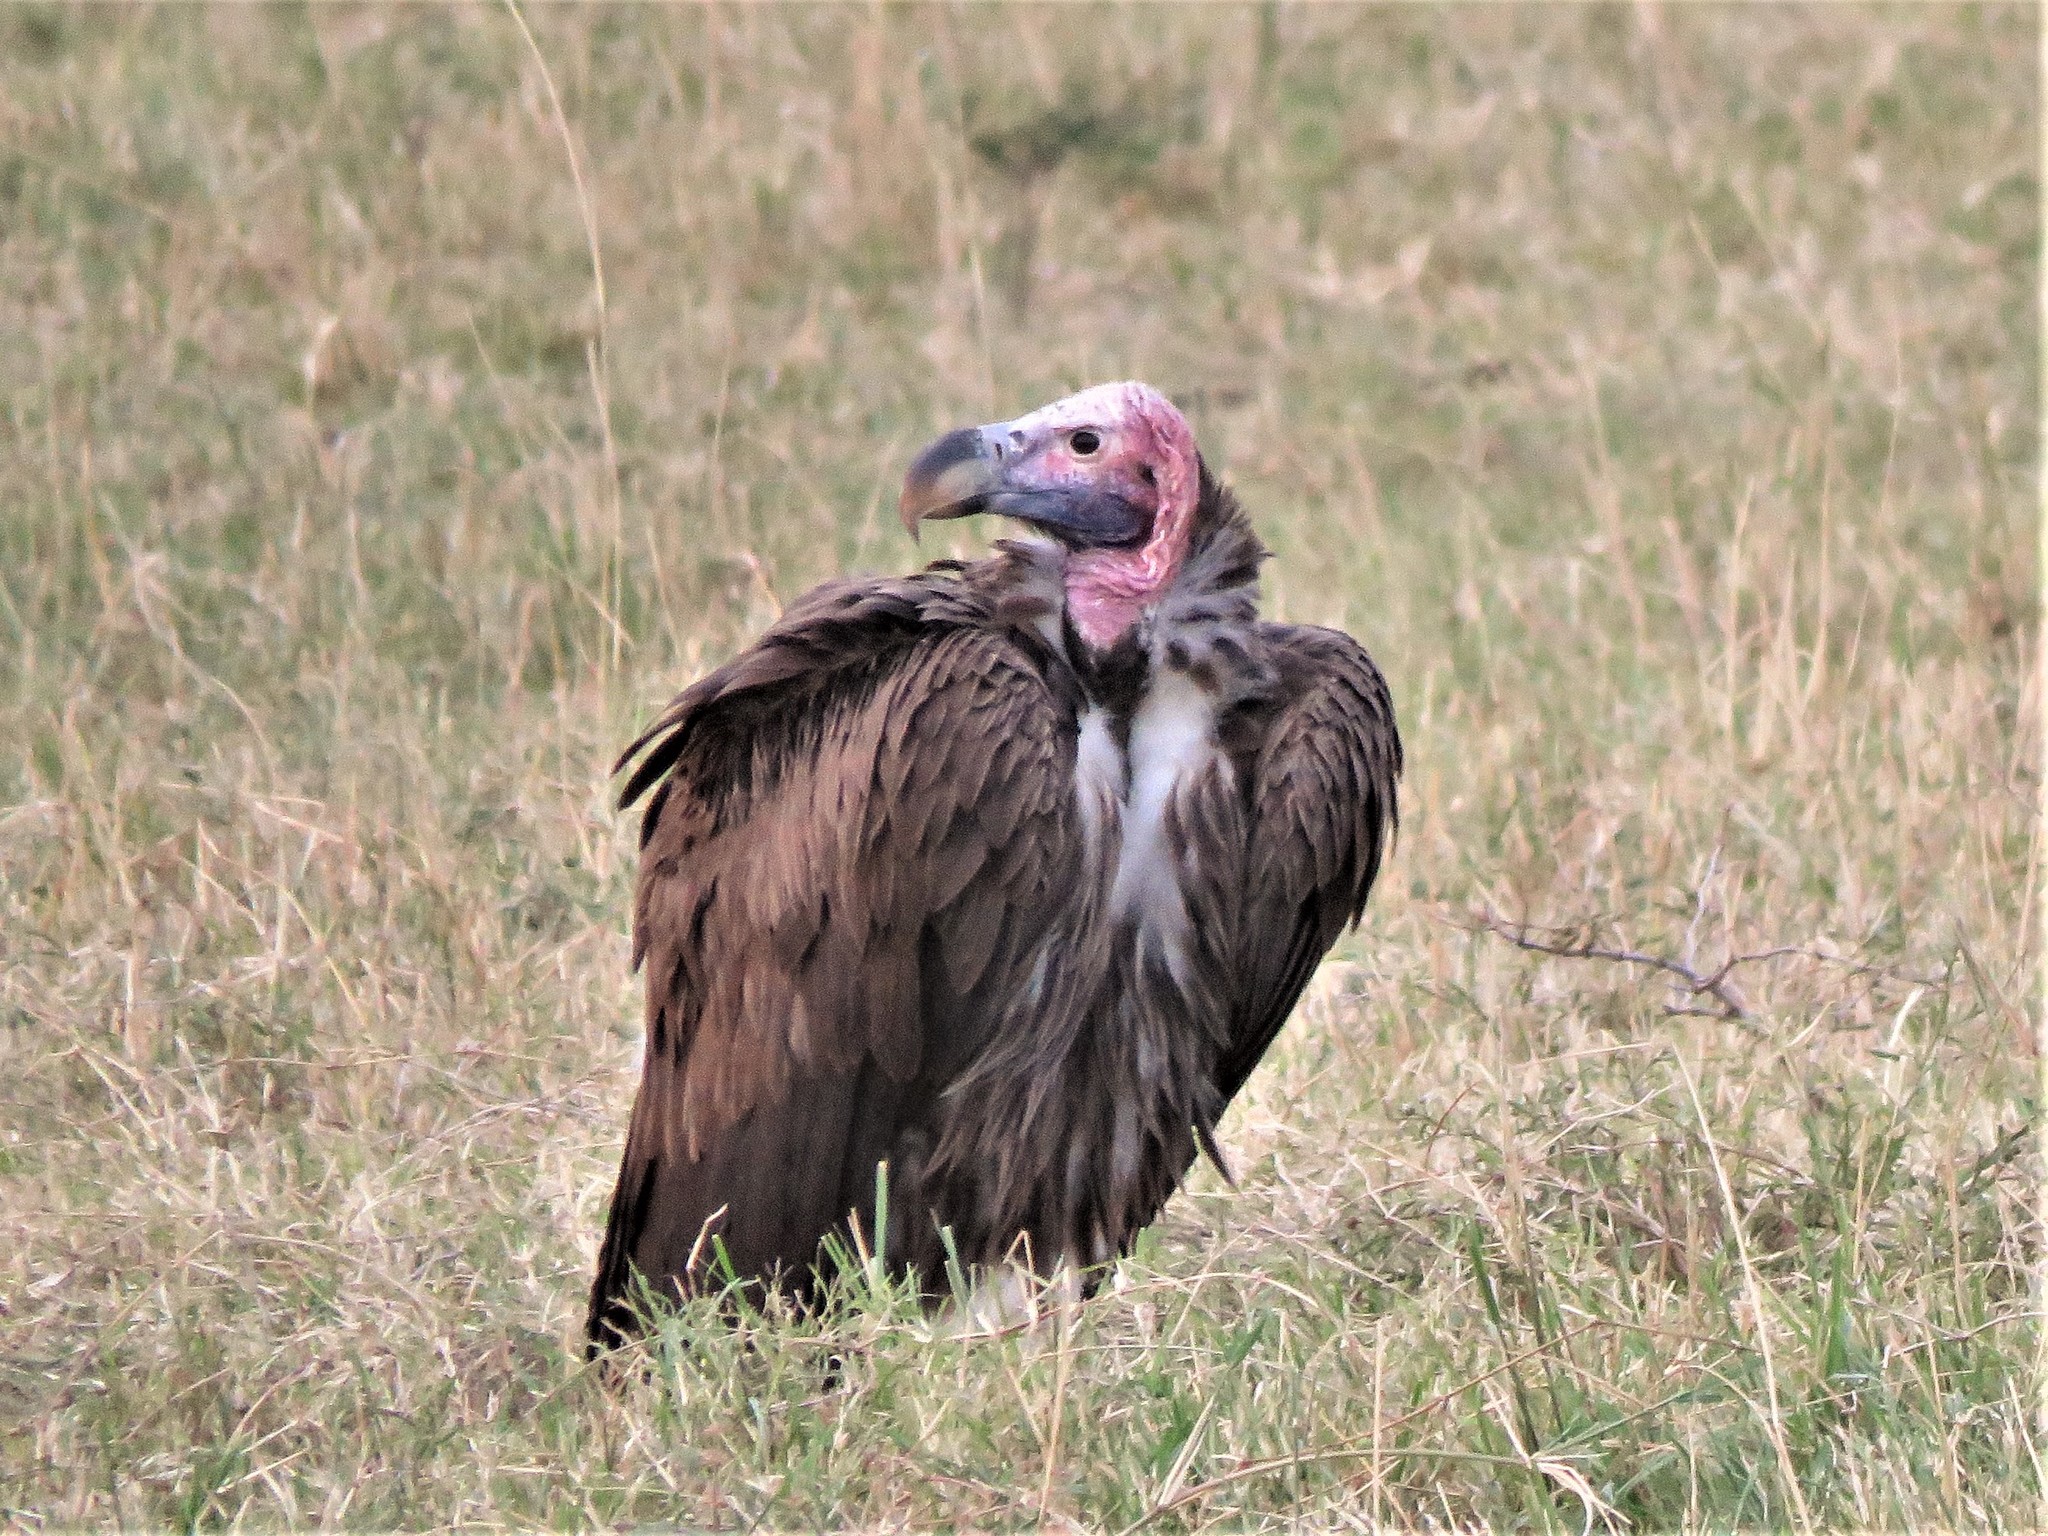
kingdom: Animalia
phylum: Chordata
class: Aves
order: Accipitriformes
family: Accipitridae
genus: Torgos
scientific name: Torgos tracheliotos
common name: Lappet-faced vulture
